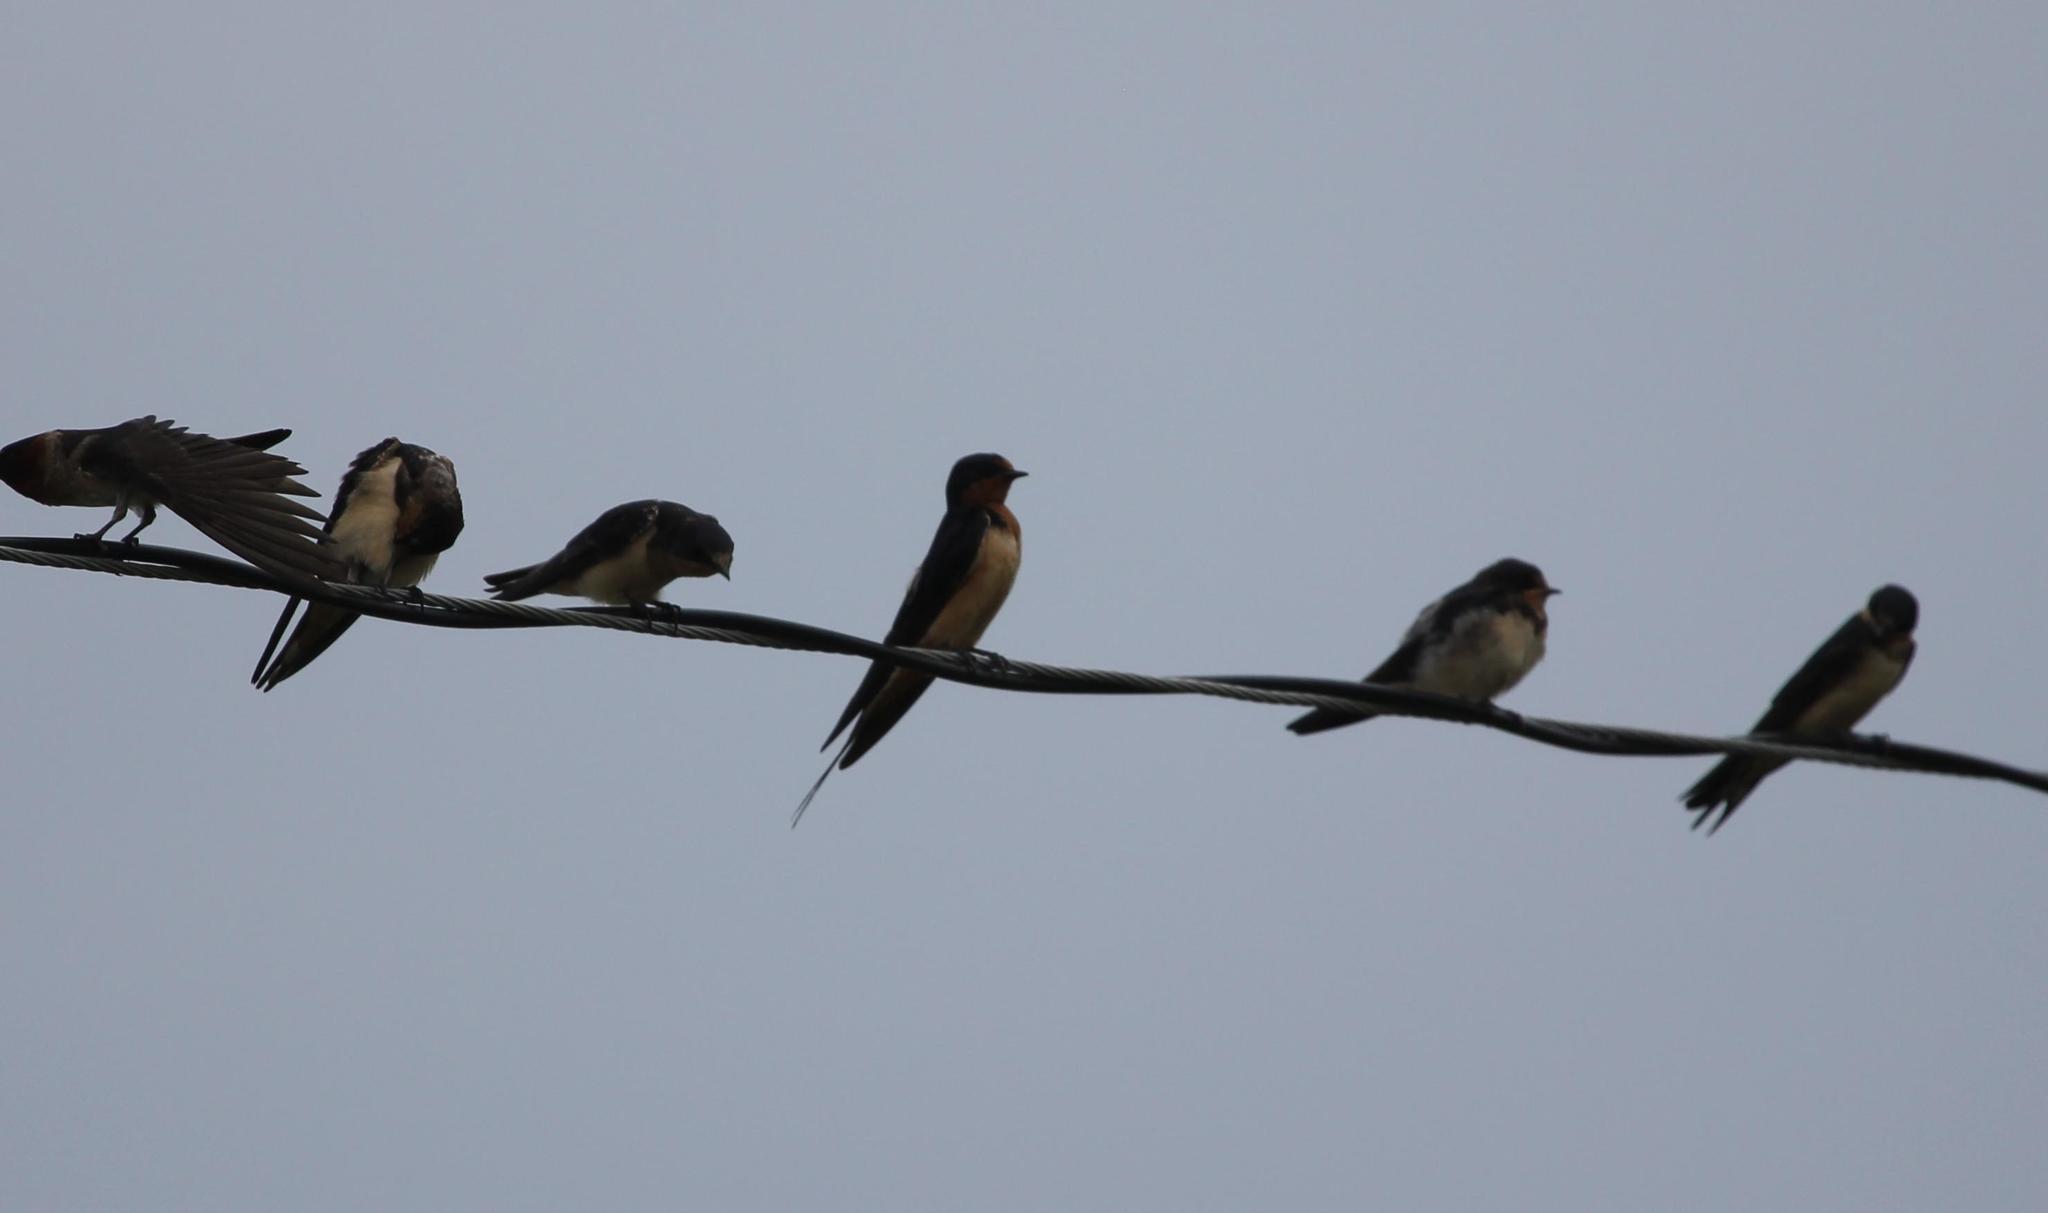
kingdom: Animalia
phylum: Chordata
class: Aves
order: Passeriformes
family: Hirundinidae
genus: Hirundo
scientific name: Hirundo rustica
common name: Barn swallow
